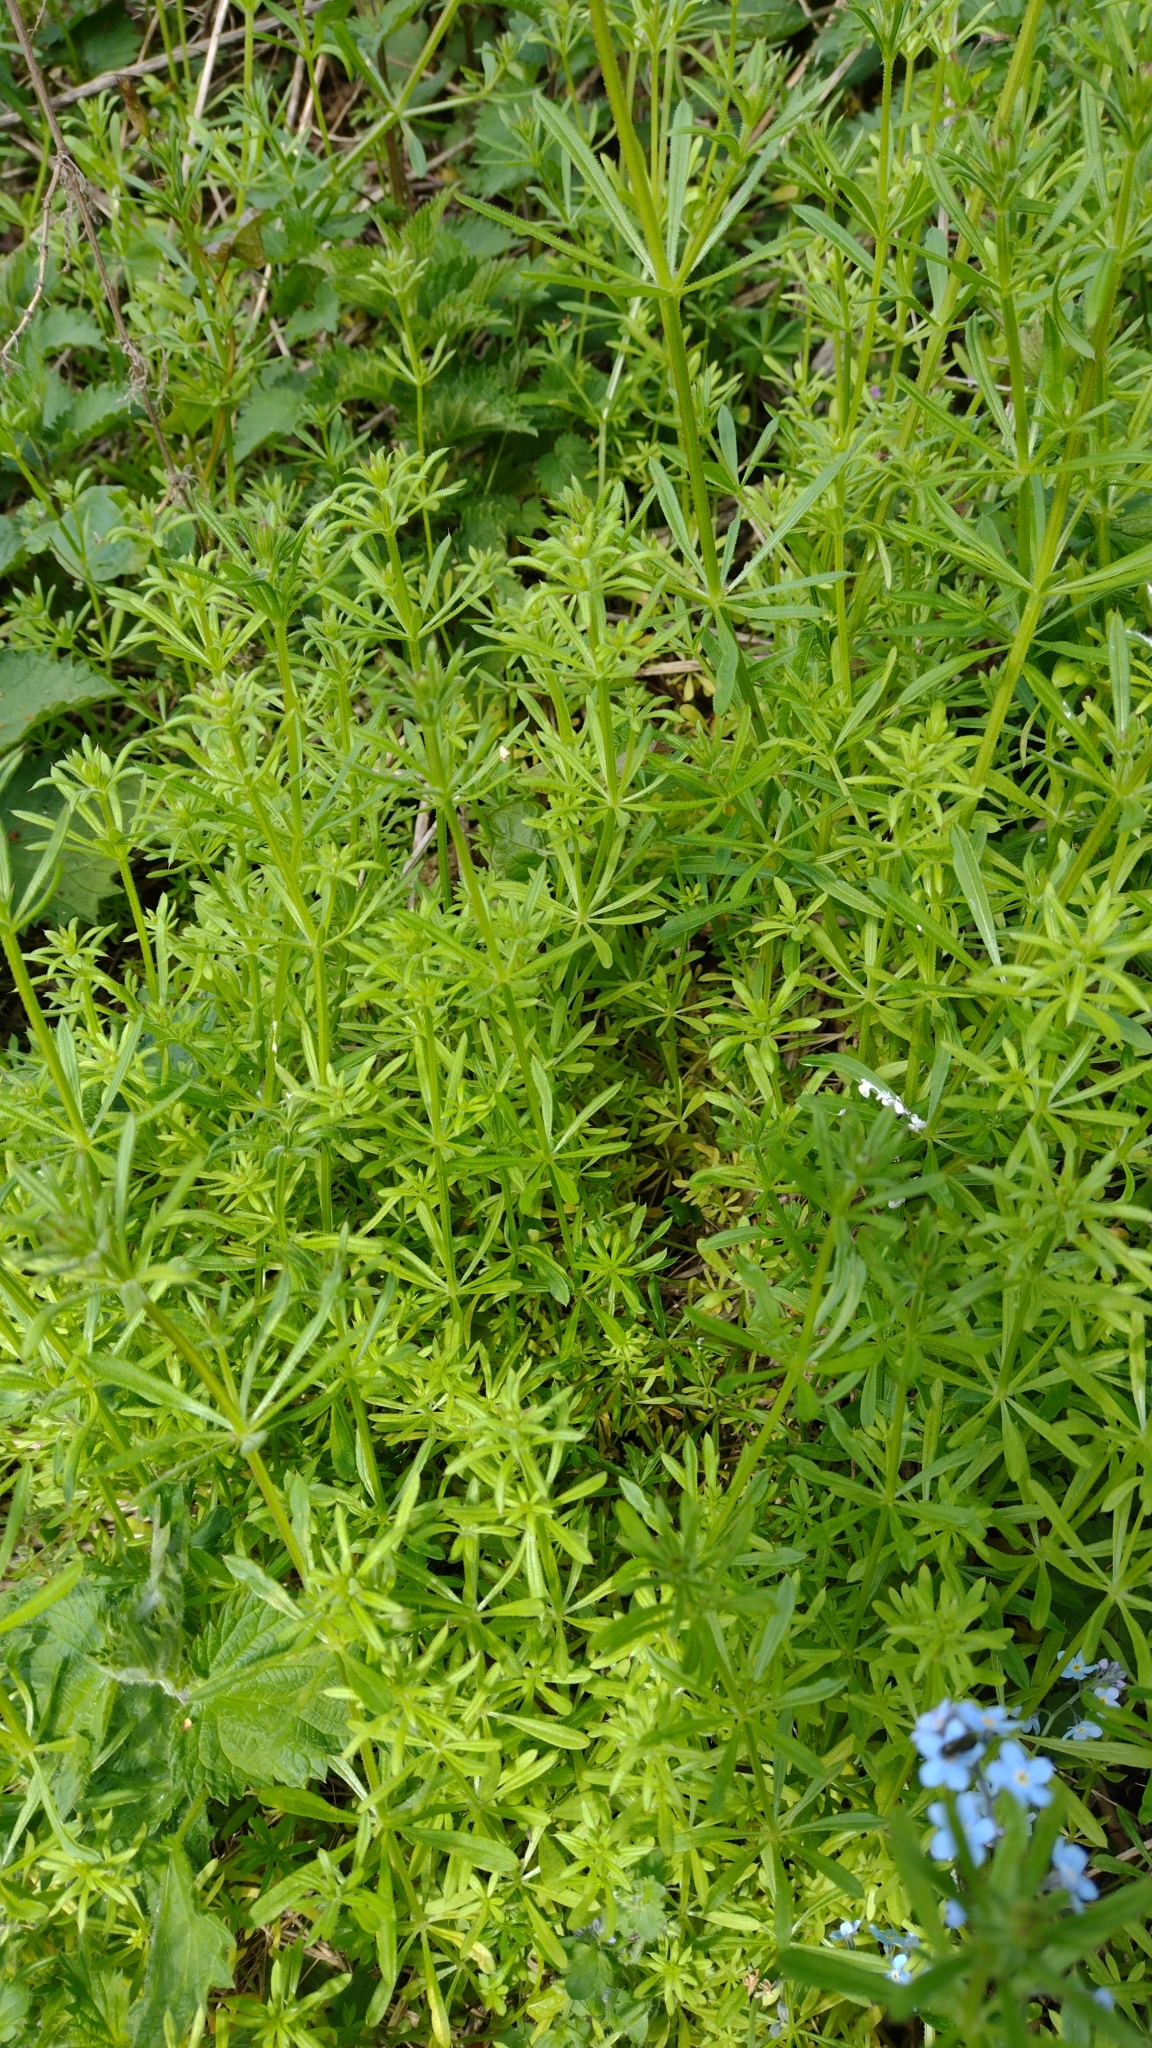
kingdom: Plantae
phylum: Tracheophyta
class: Magnoliopsida
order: Gentianales
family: Rubiaceae
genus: Galium
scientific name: Galium aparine
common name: Cleavers
